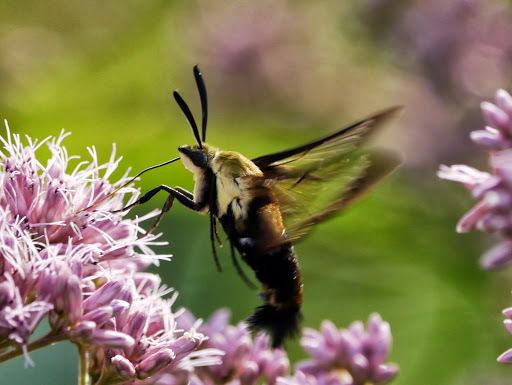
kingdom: Animalia
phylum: Arthropoda
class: Insecta
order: Lepidoptera
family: Sphingidae
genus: Hemaris
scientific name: Hemaris diffinis
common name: Bumblebee moth
